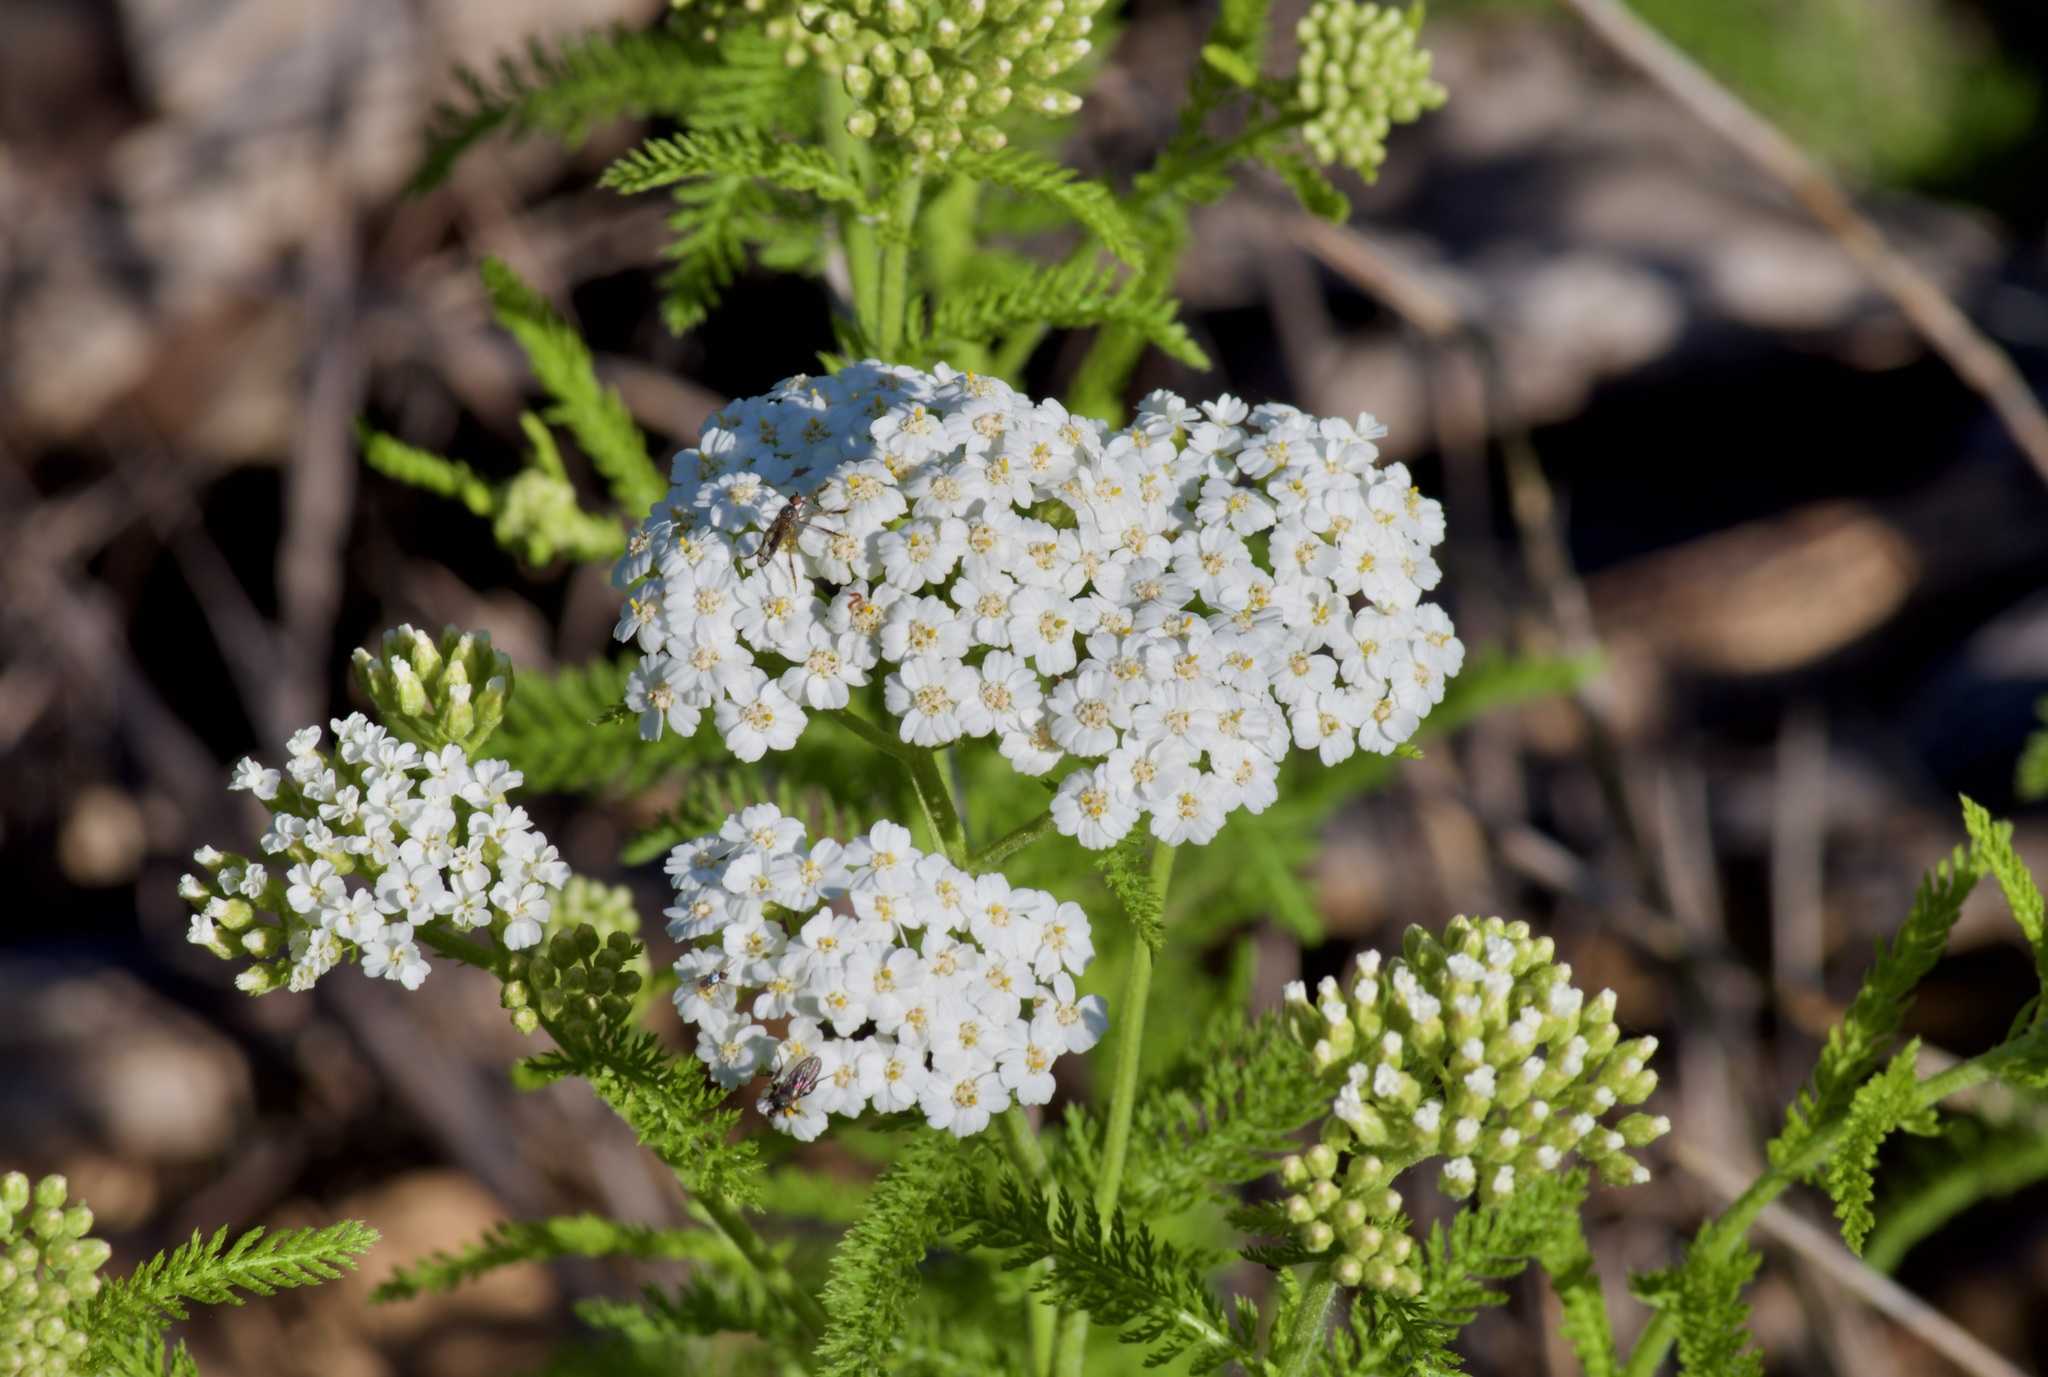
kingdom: Plantae
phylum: Tracheophyta
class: Magnoliopsida
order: Asterales
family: Asteraceae
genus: Achillea
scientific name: Achillea millefolium
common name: Yarrow
